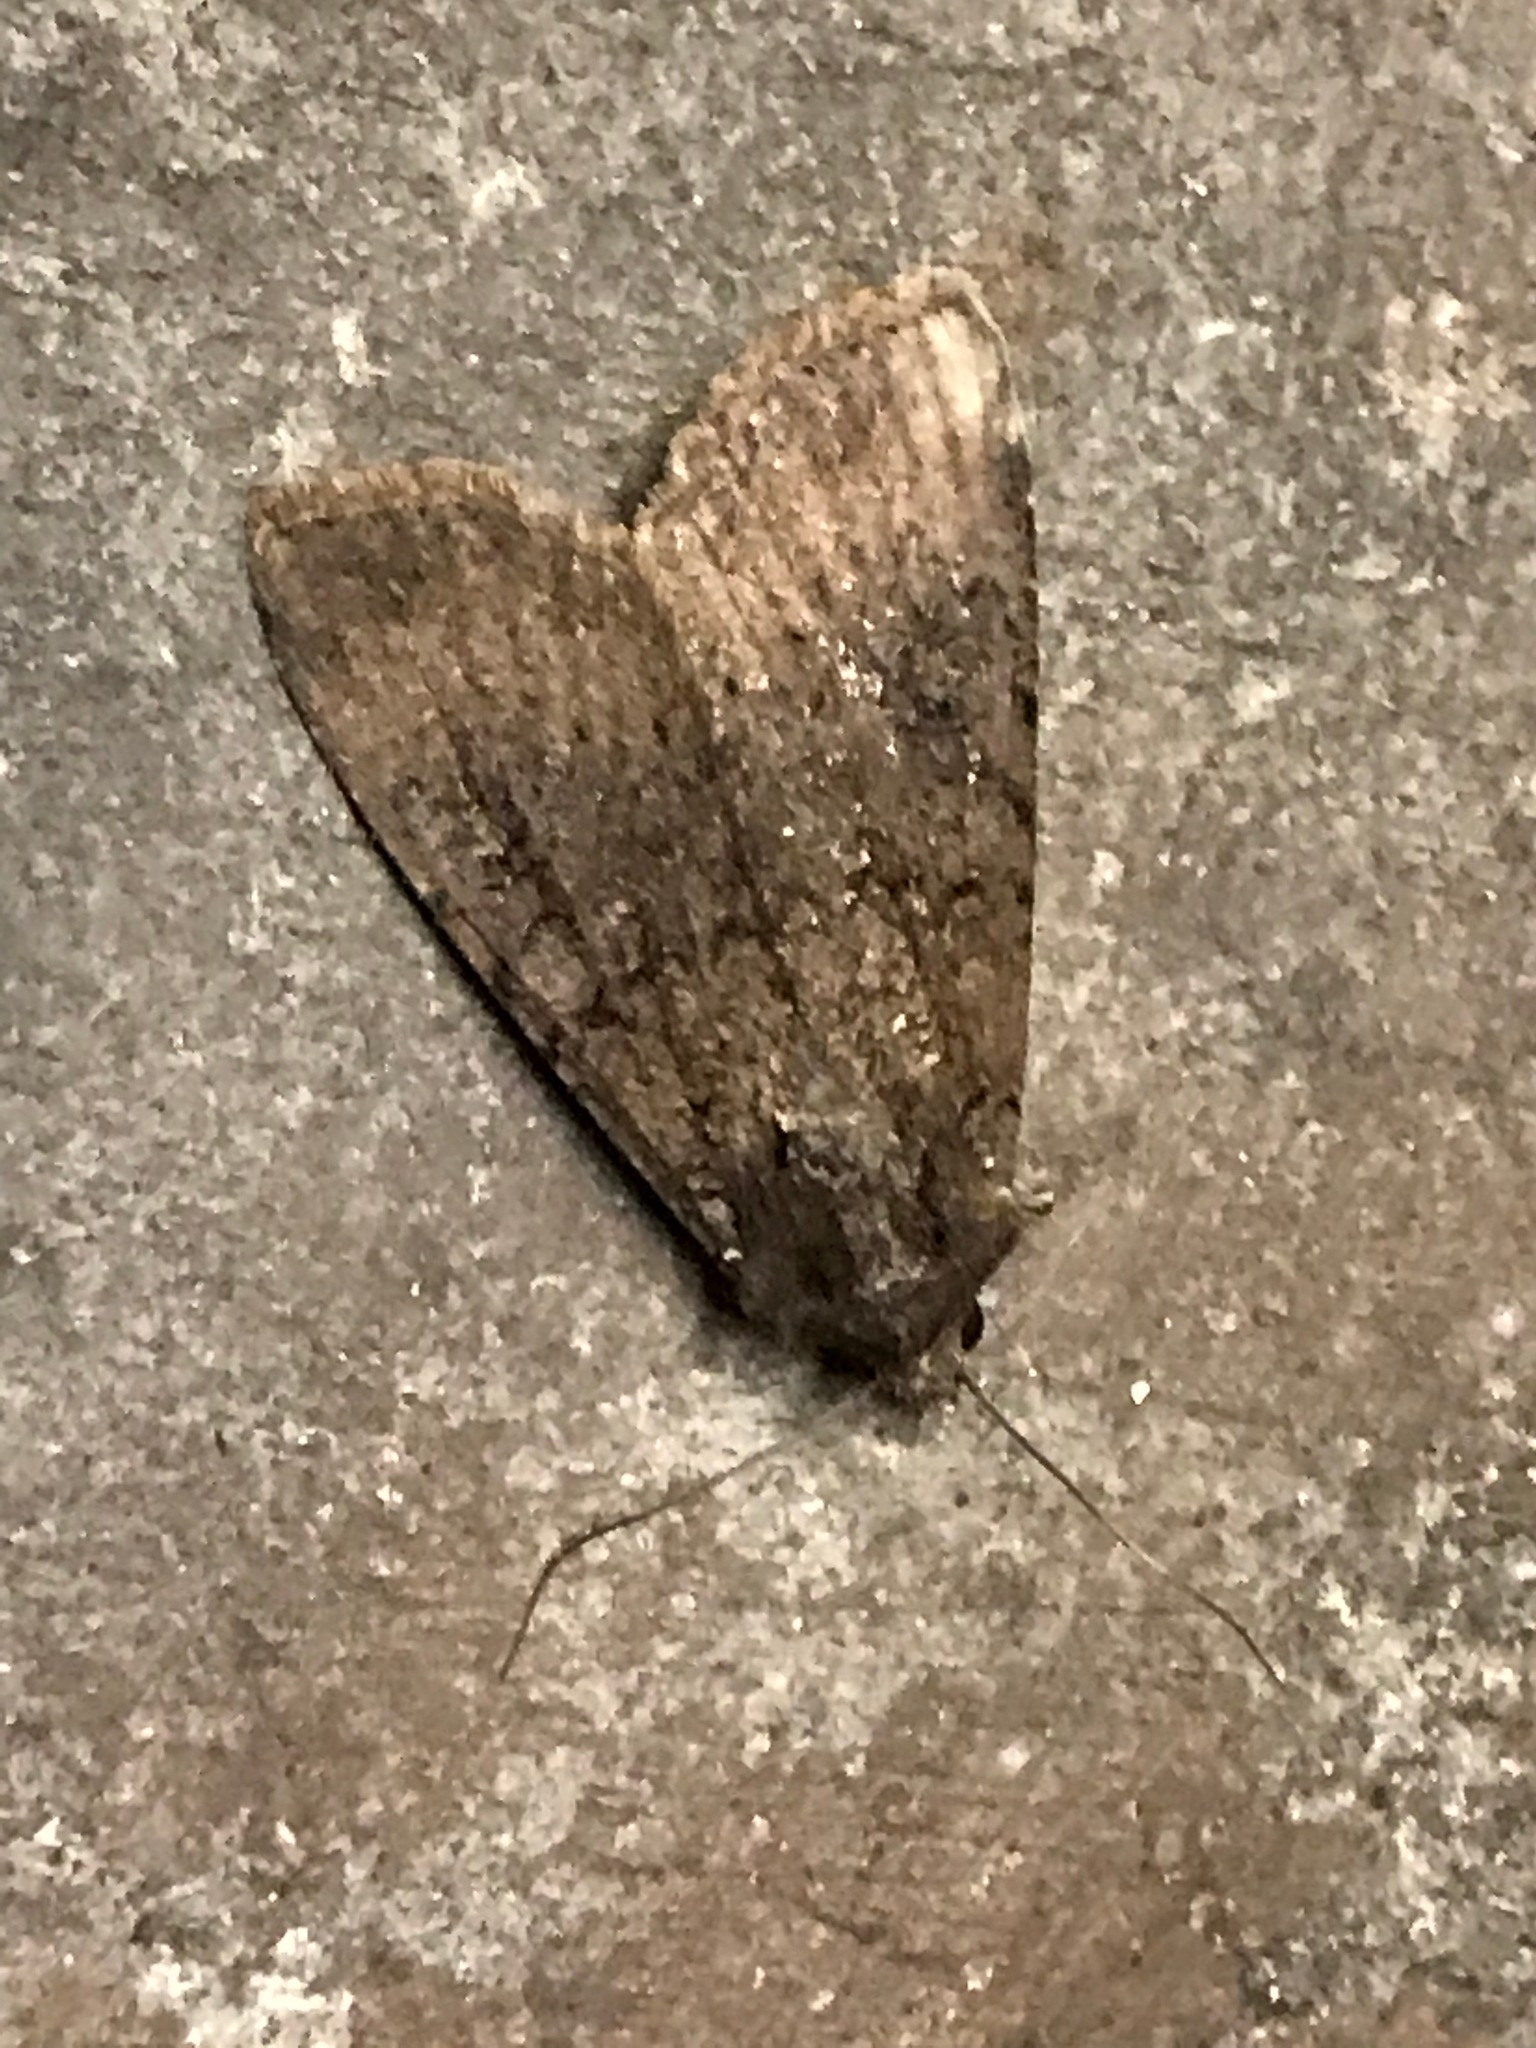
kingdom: Animalia
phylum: Arthropoda
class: Insecta
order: Lepidoptera
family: Noctuidae
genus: Peridroma
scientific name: Peridroma saucia
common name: Pearly underwing
